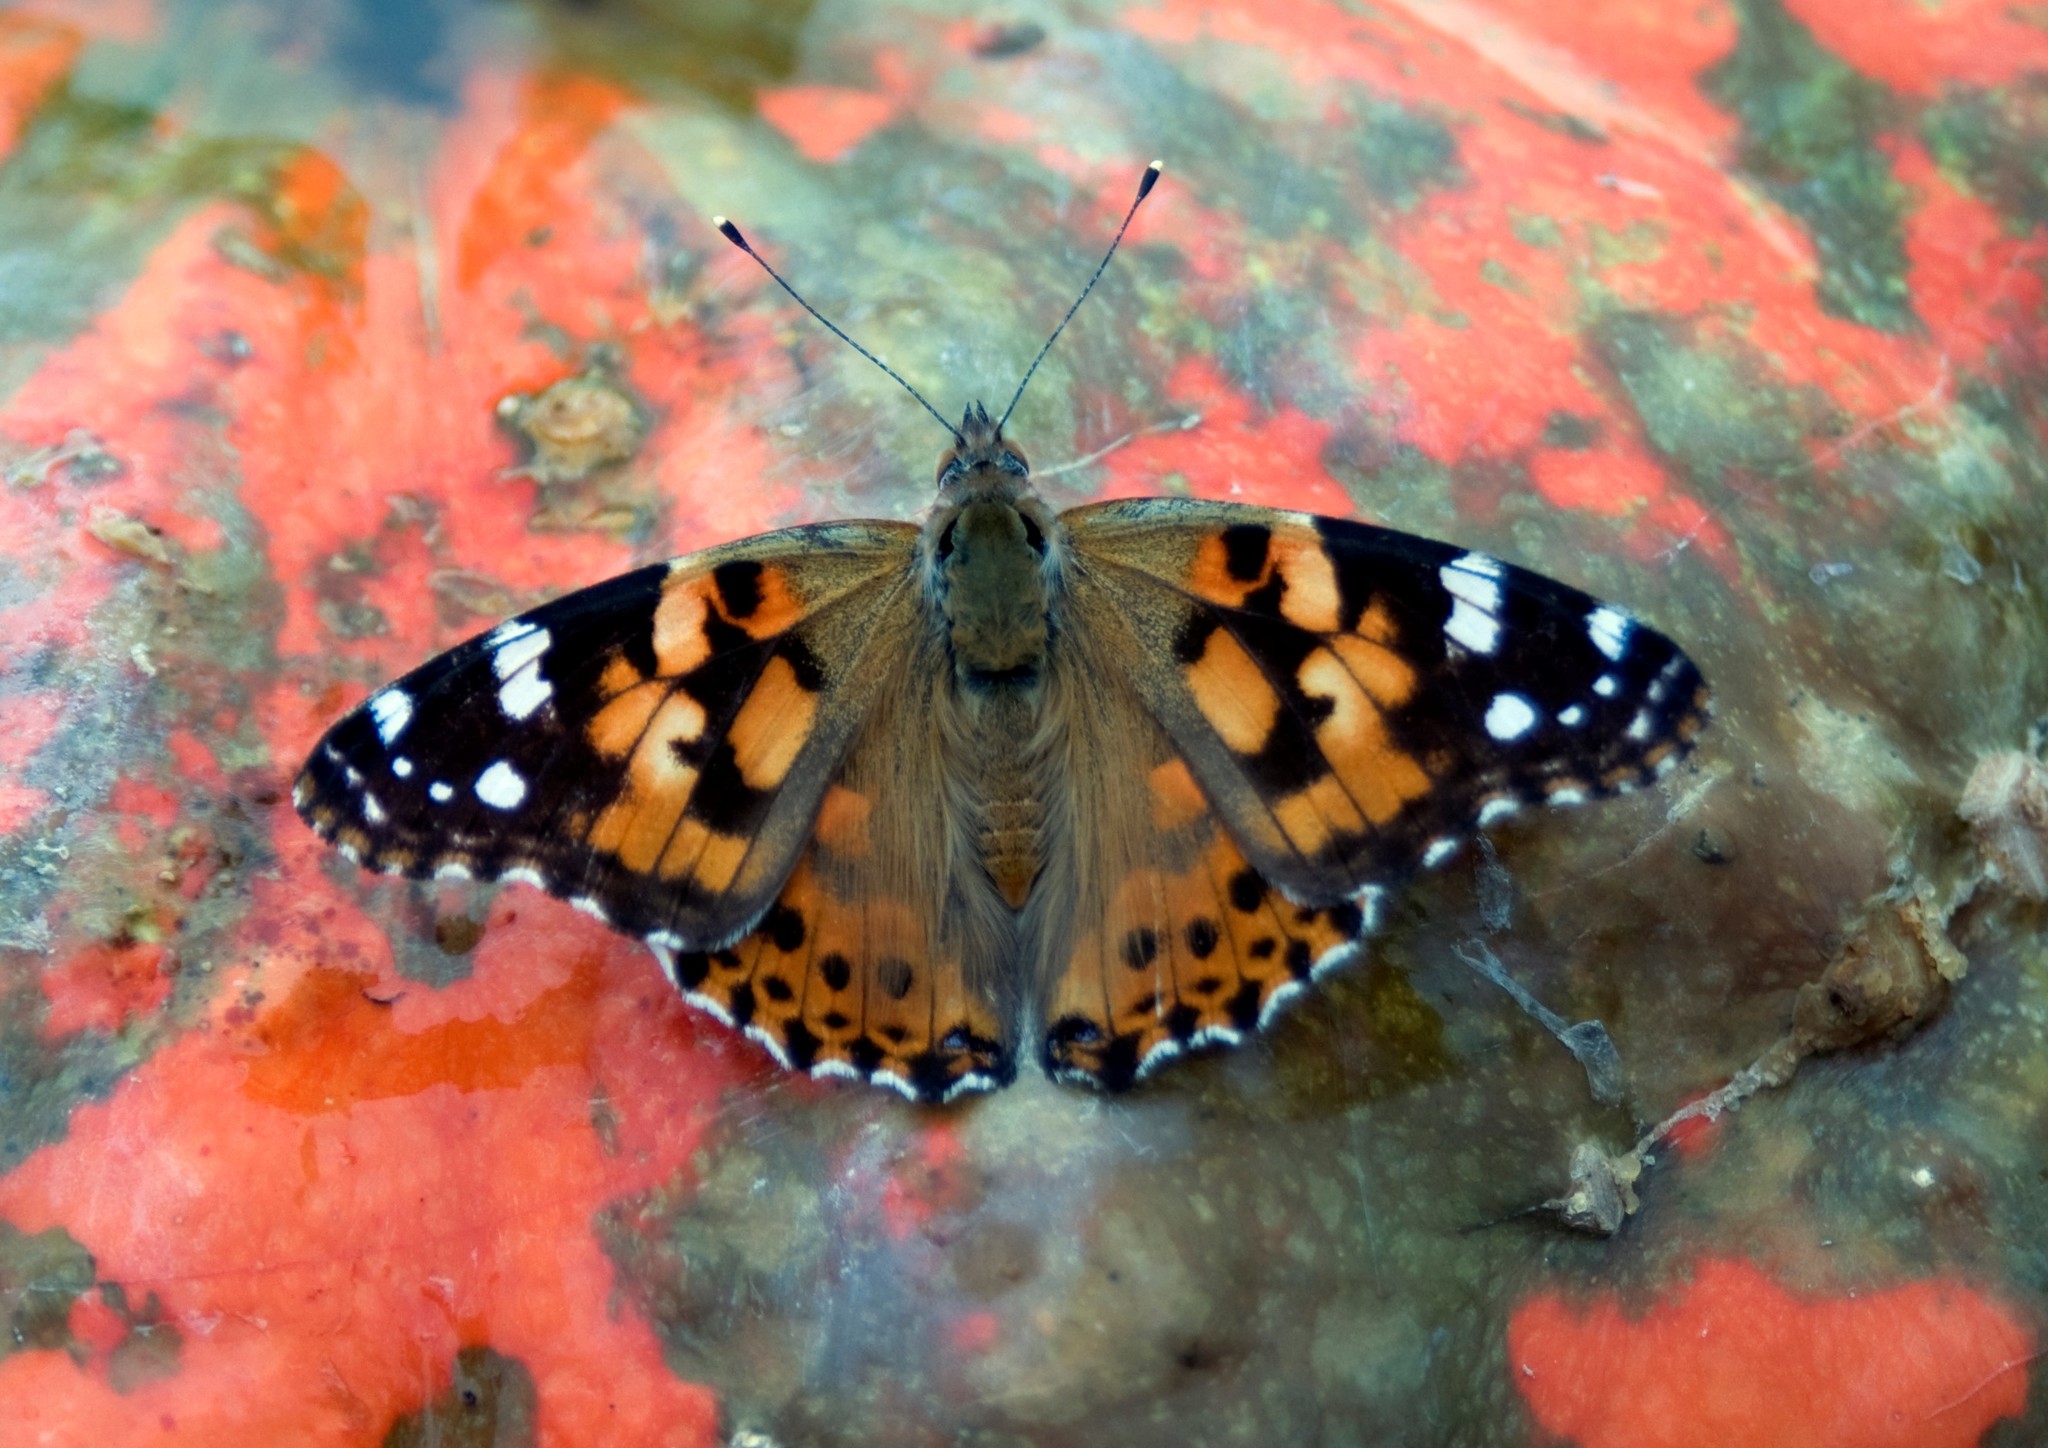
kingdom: Animalia
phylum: Arthropoda
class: Insecta
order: Lepidoptera
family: Nymphalidae
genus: Vanessa
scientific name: Vanessa cardui
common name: Painted lady
